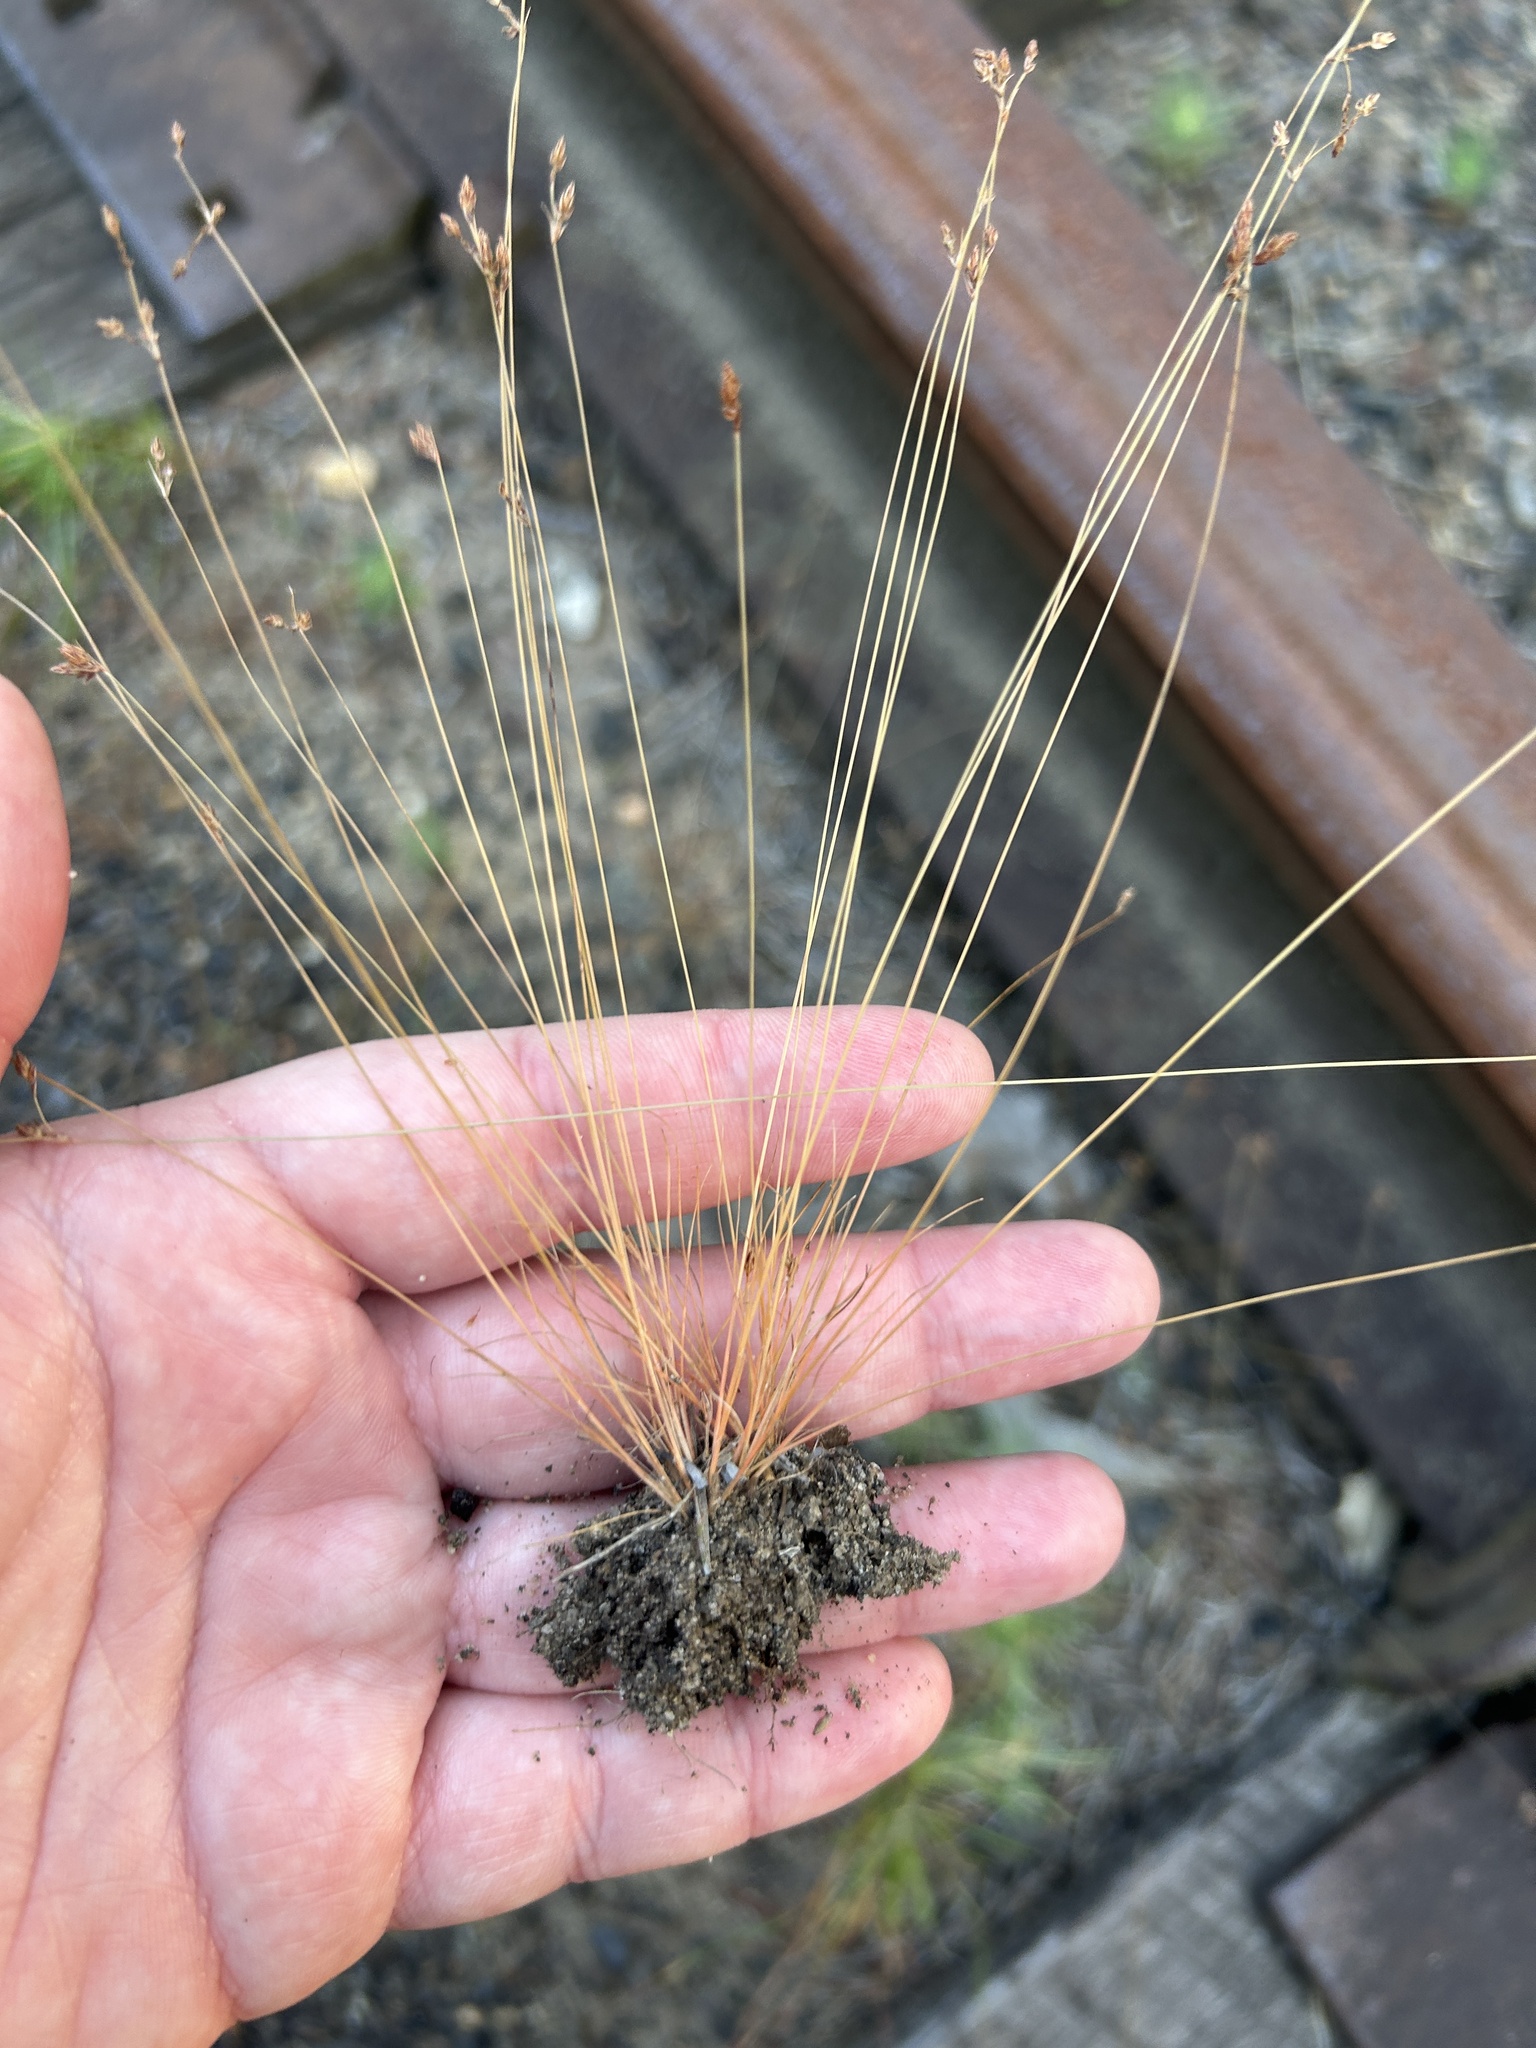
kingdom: Plantae
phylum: Tracheophyta
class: Liliopsida
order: Poales
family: Cyperaceae
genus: Bulbostylis
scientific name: Bulbostylis capillaris
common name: Densetuft hairsedge
